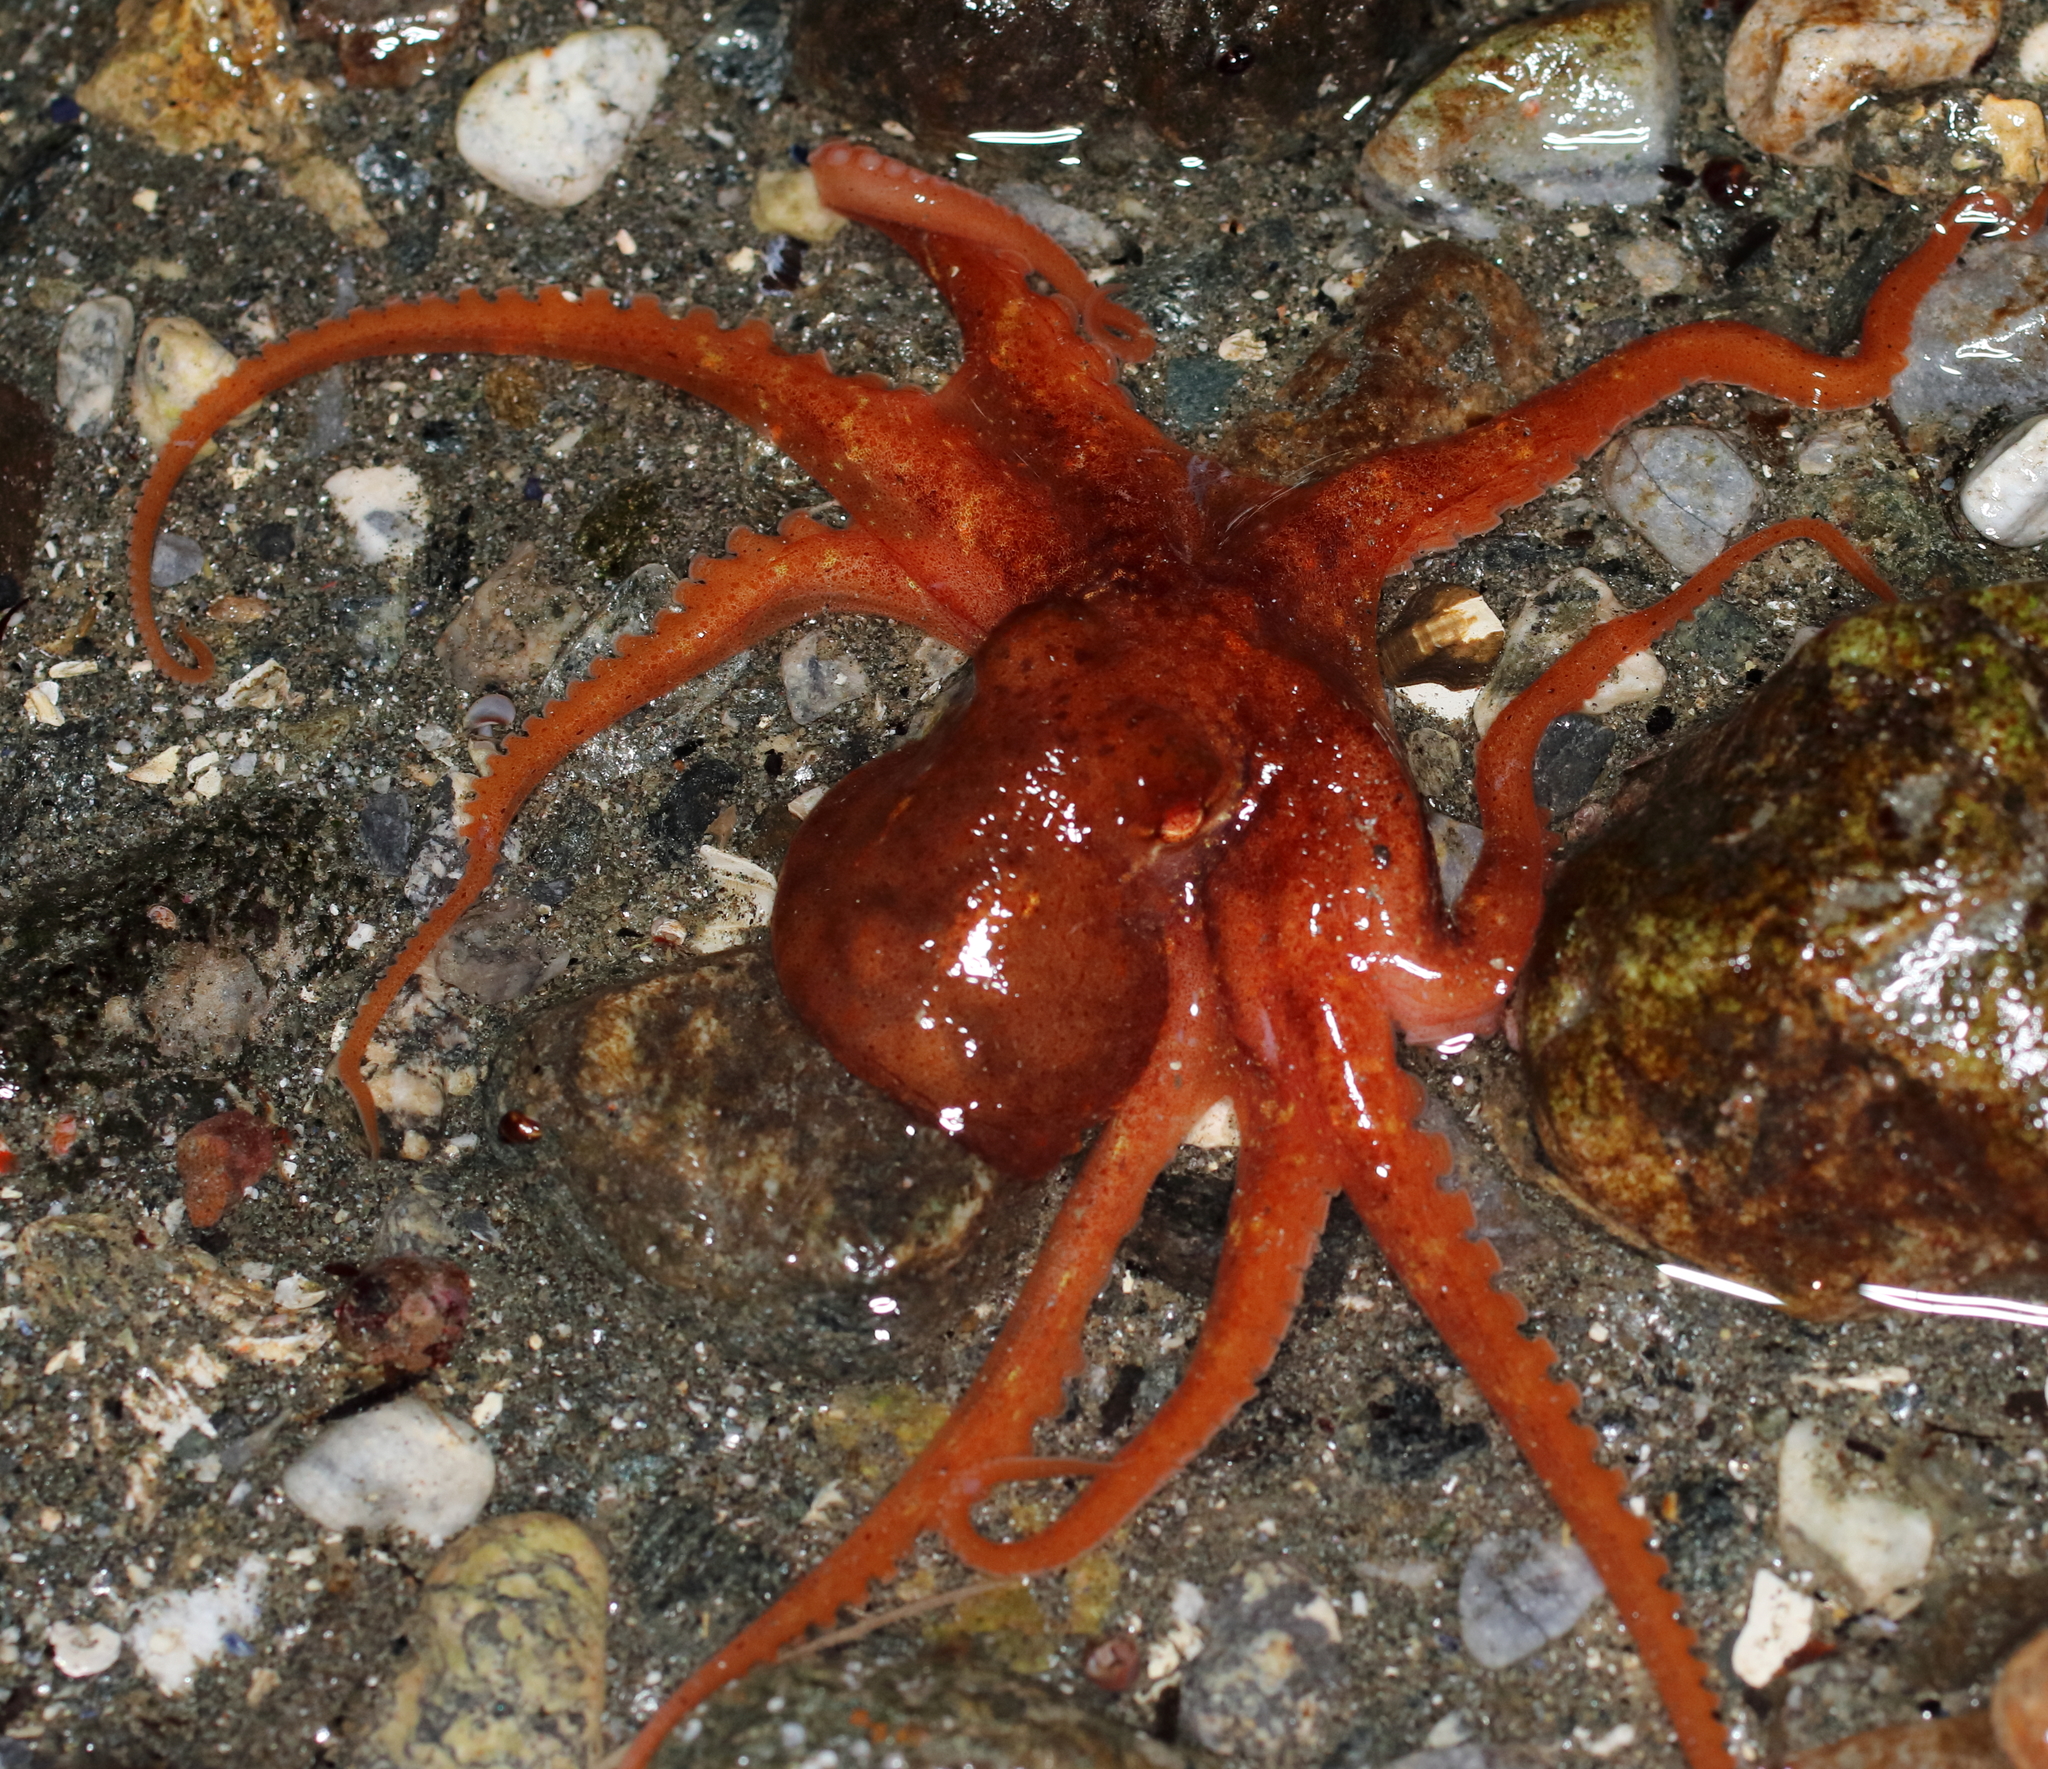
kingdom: Animalia
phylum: Mollusca
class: Cephalopoda
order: Octopoda
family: Enteroctopodidae
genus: Enteroctopus
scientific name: Enteroctopus dofleini
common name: Giant north pacific octopus
